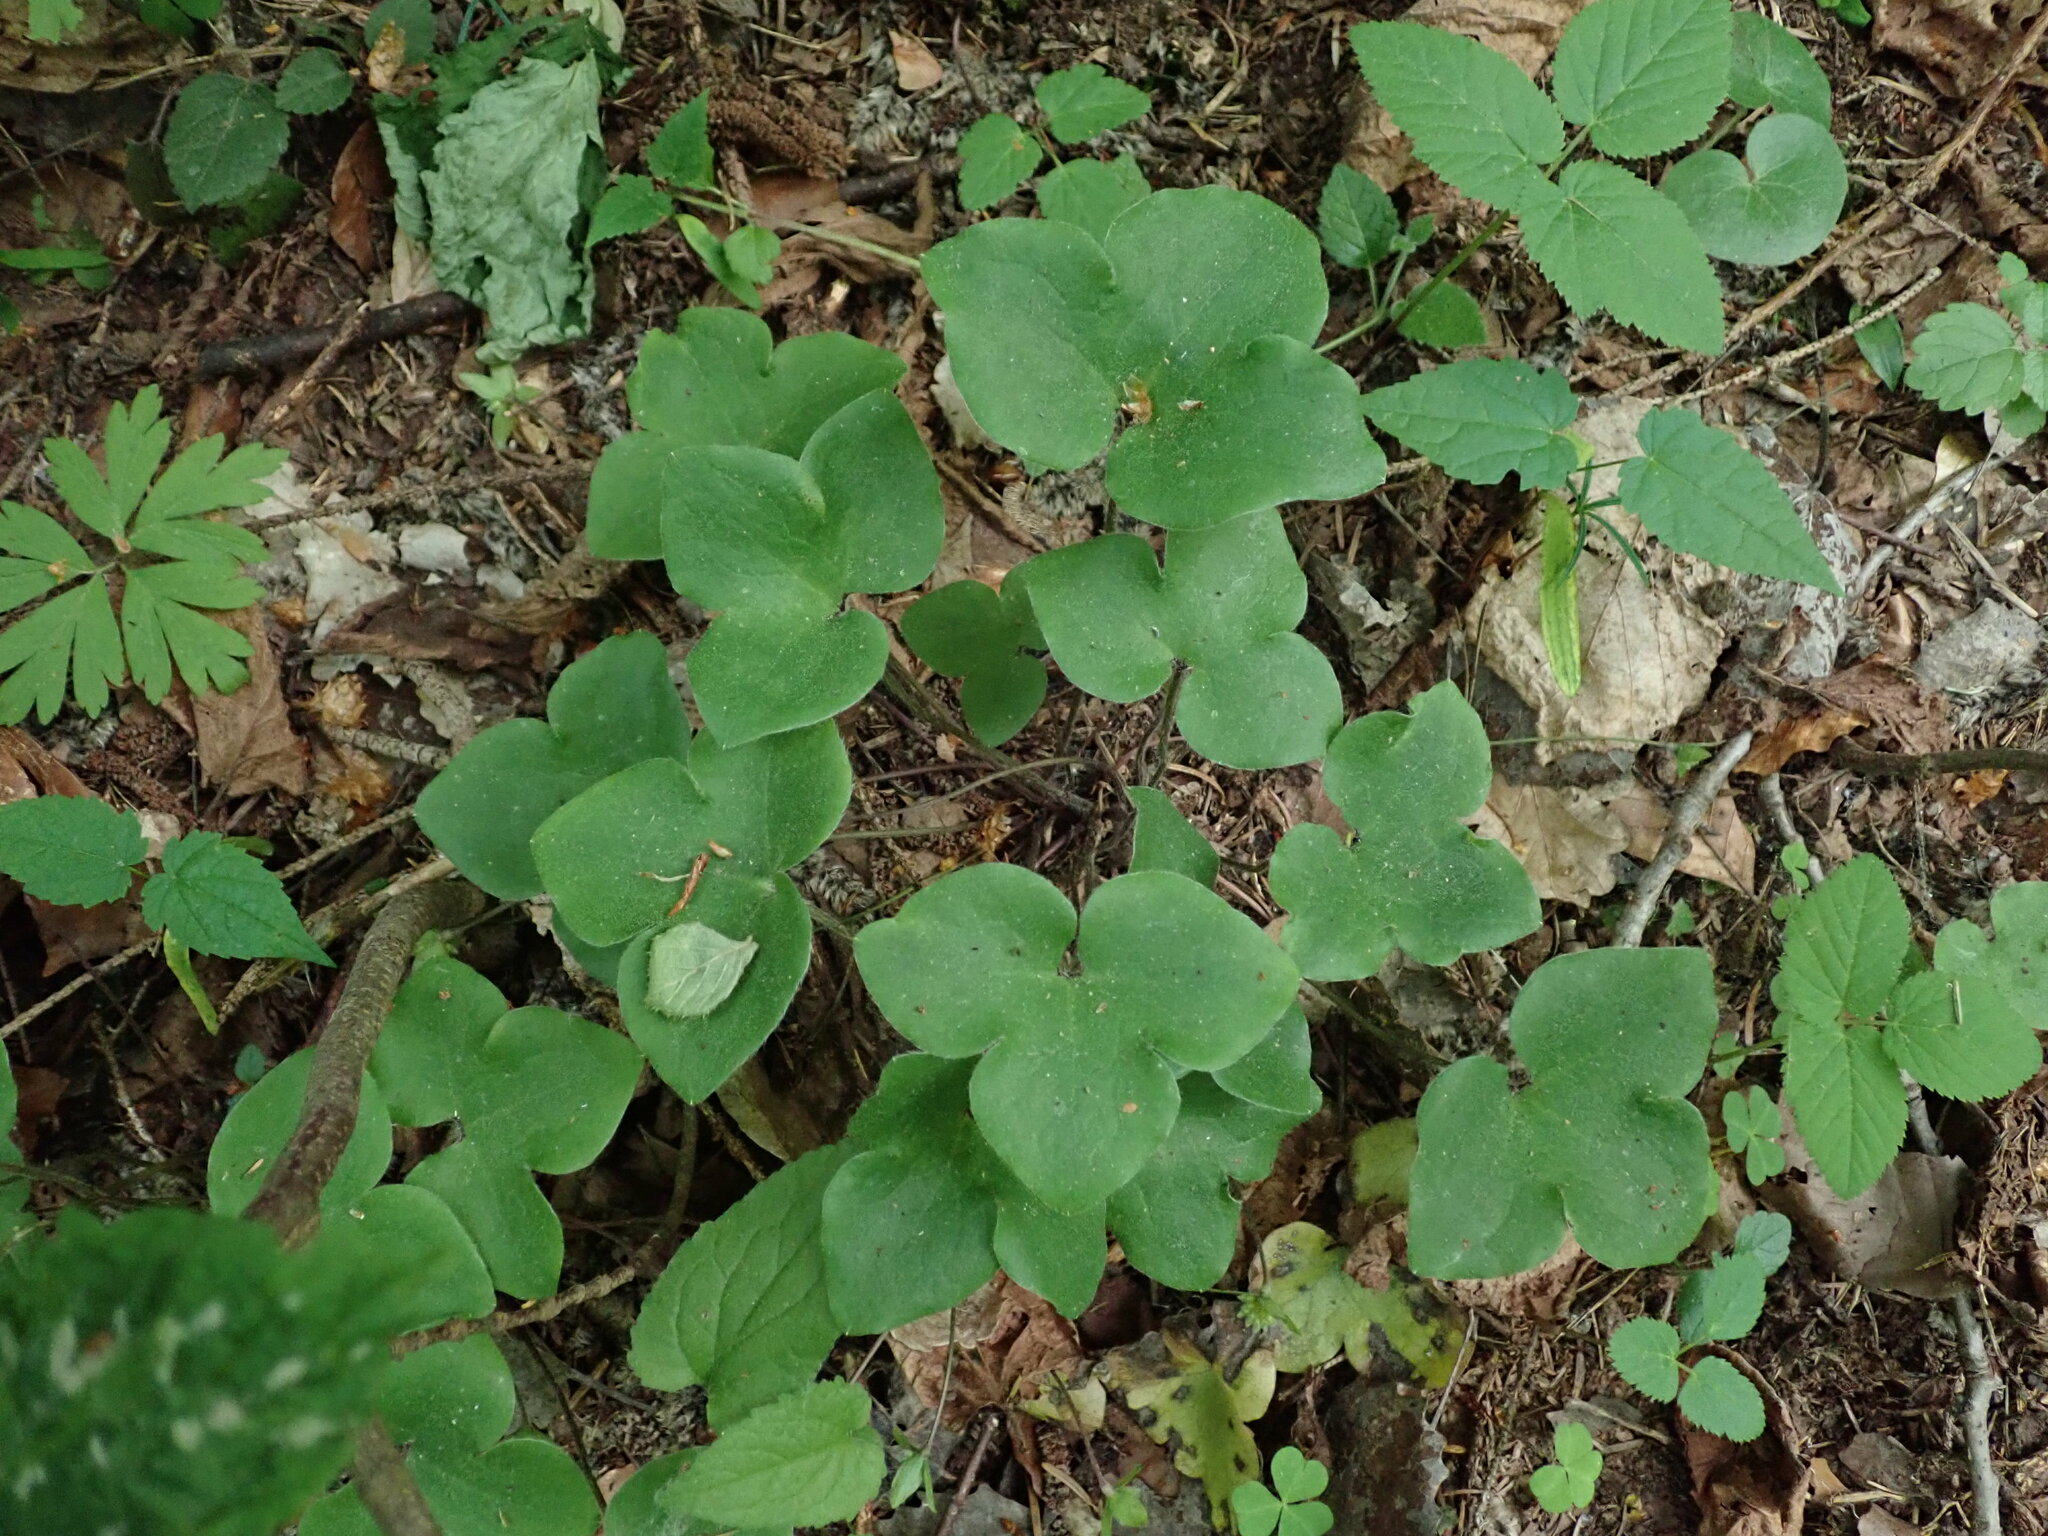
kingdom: Plantae
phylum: Tracheophyta
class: Magnoliopsida
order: Ranunculales
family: Ranunculaceae
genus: Hepatica
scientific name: Hepatica nobilis
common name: Liverleaf
